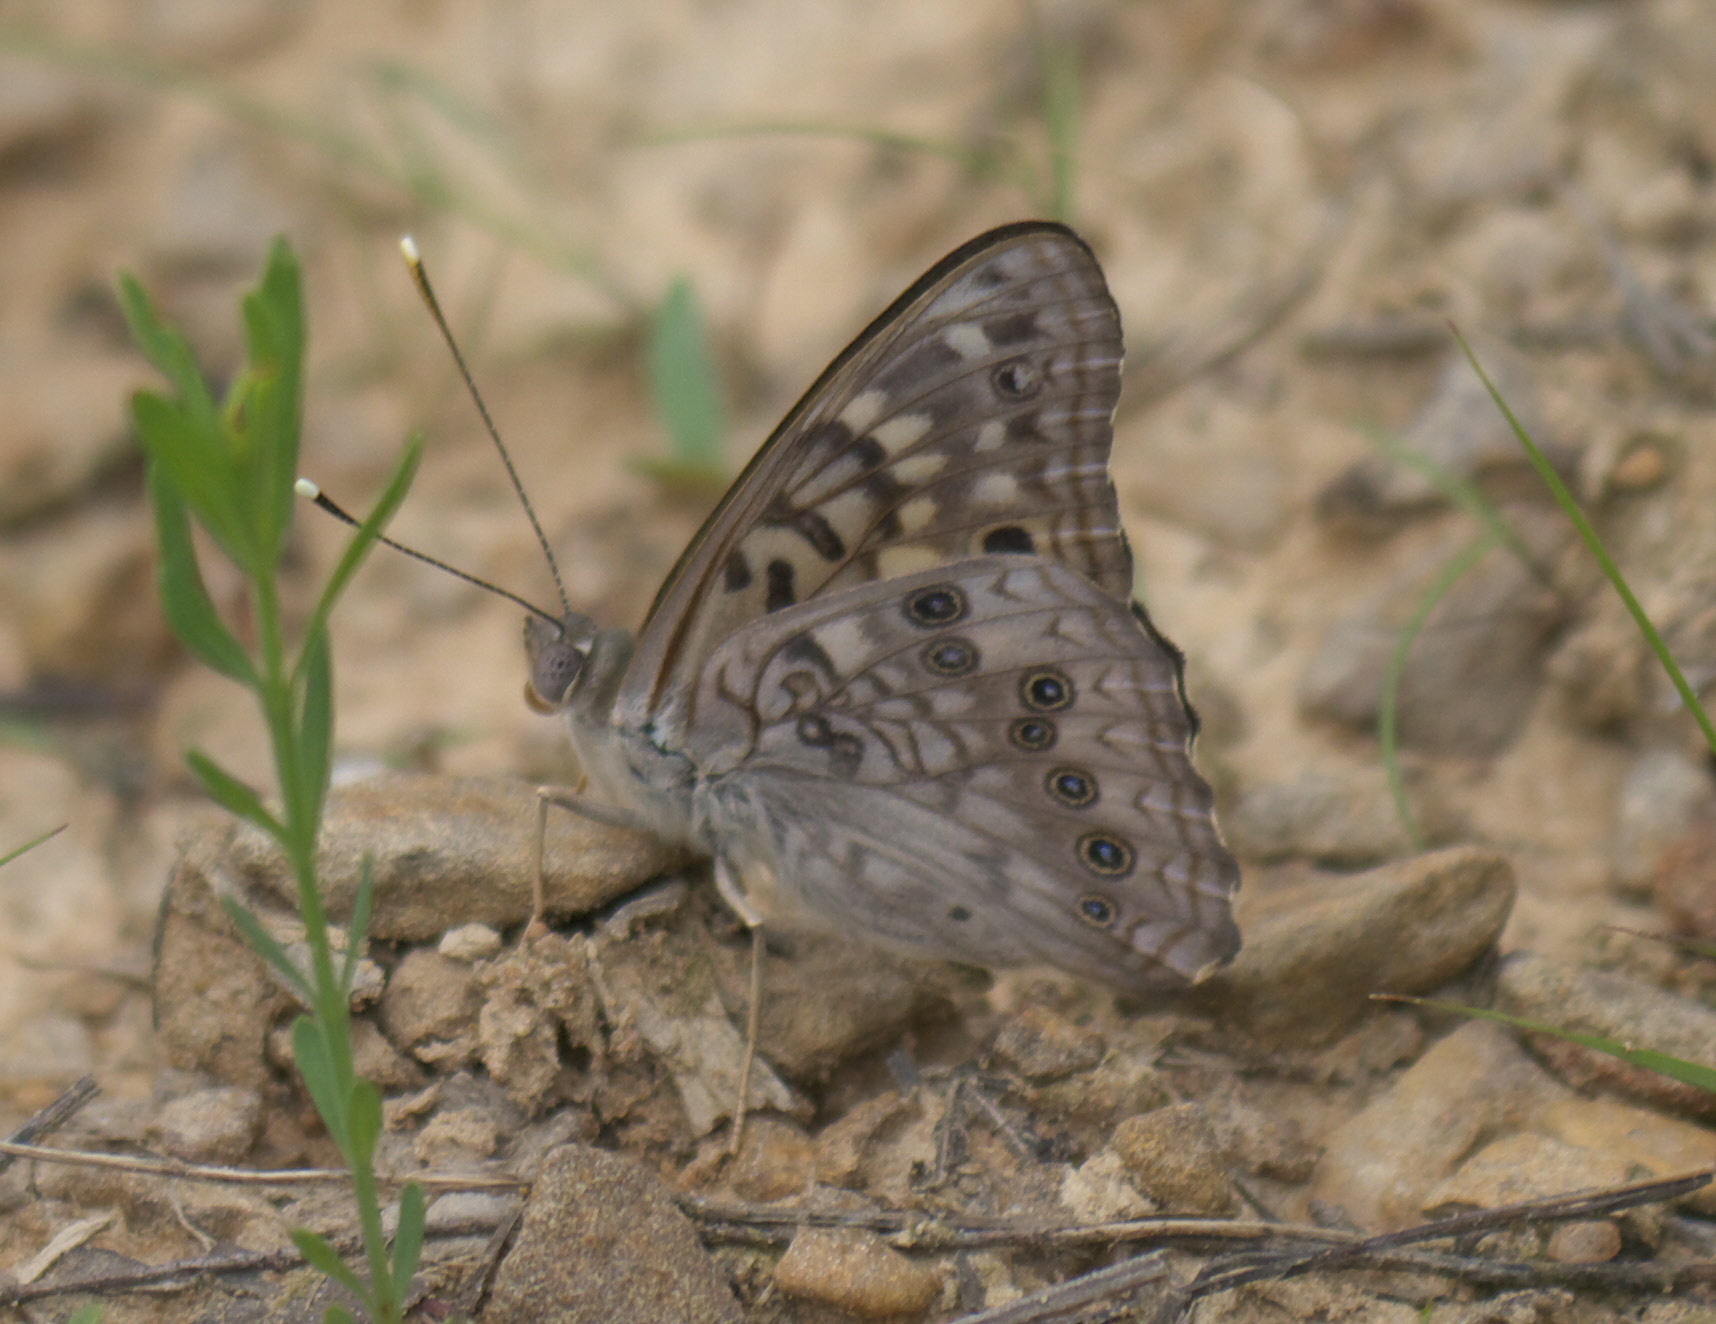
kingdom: Animalia
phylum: Arthropoda
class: Insecta
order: Lepidoptera
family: Nymphalidae
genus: Asterocampa
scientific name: Asterocampa celtis
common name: Hackberry emperor
